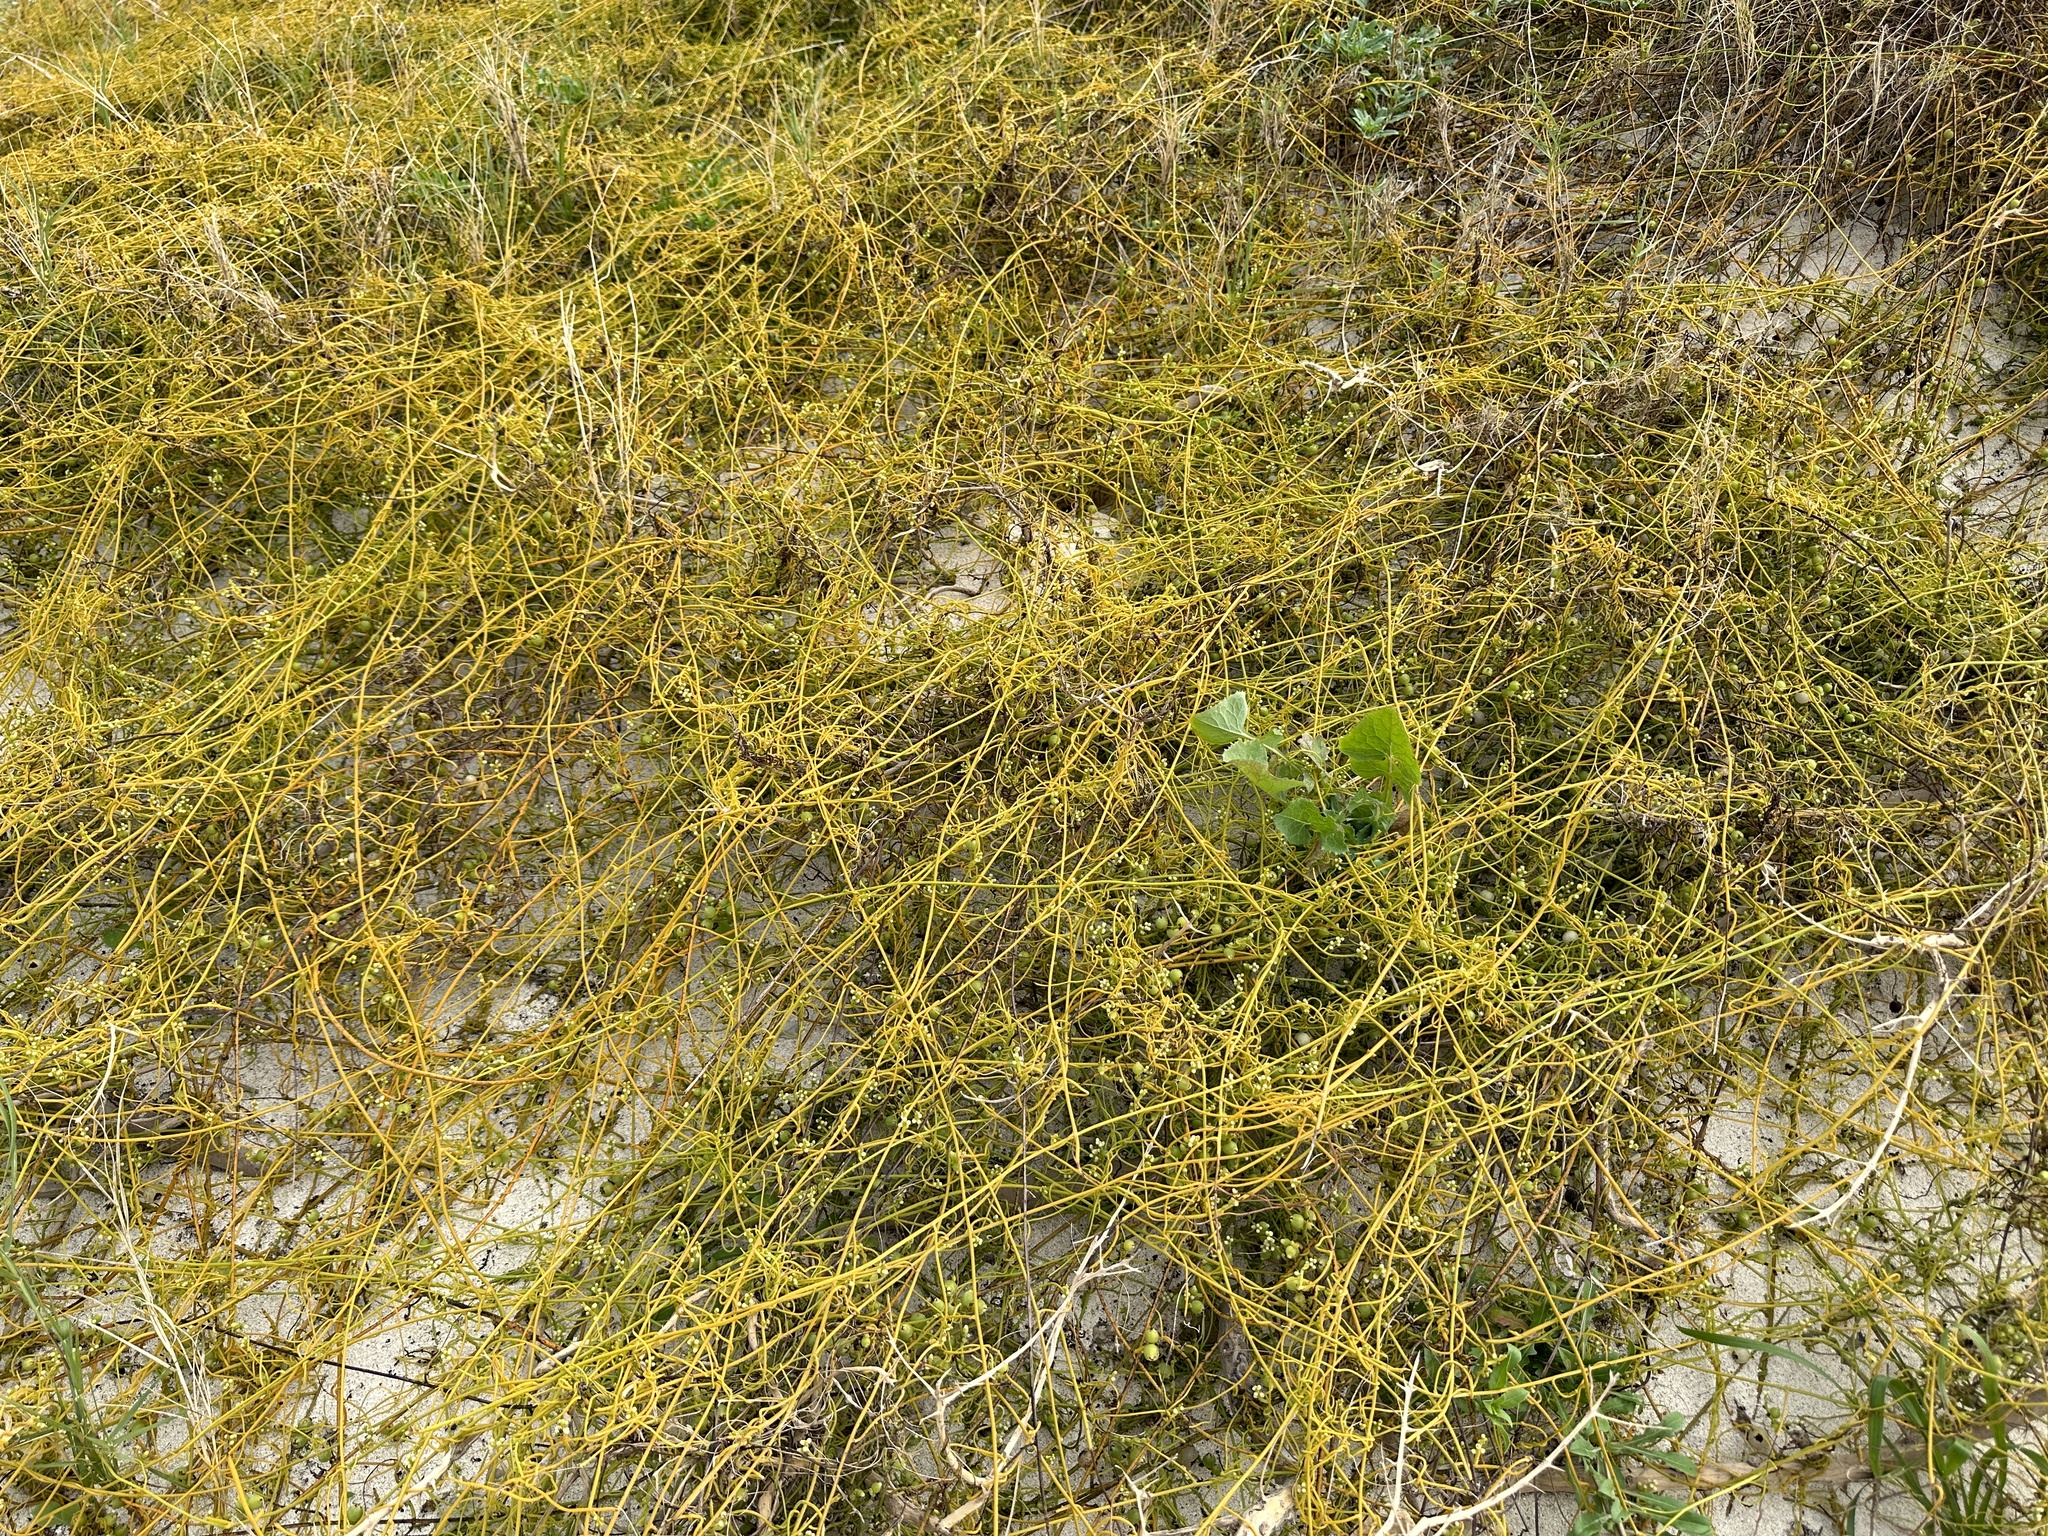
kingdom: Plantae
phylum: Tracheophyta
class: Magnoliopsida
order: Laurales
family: Lauraceae
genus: Cassytha
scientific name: Cassytha filiformis
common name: Dodder-laurel
